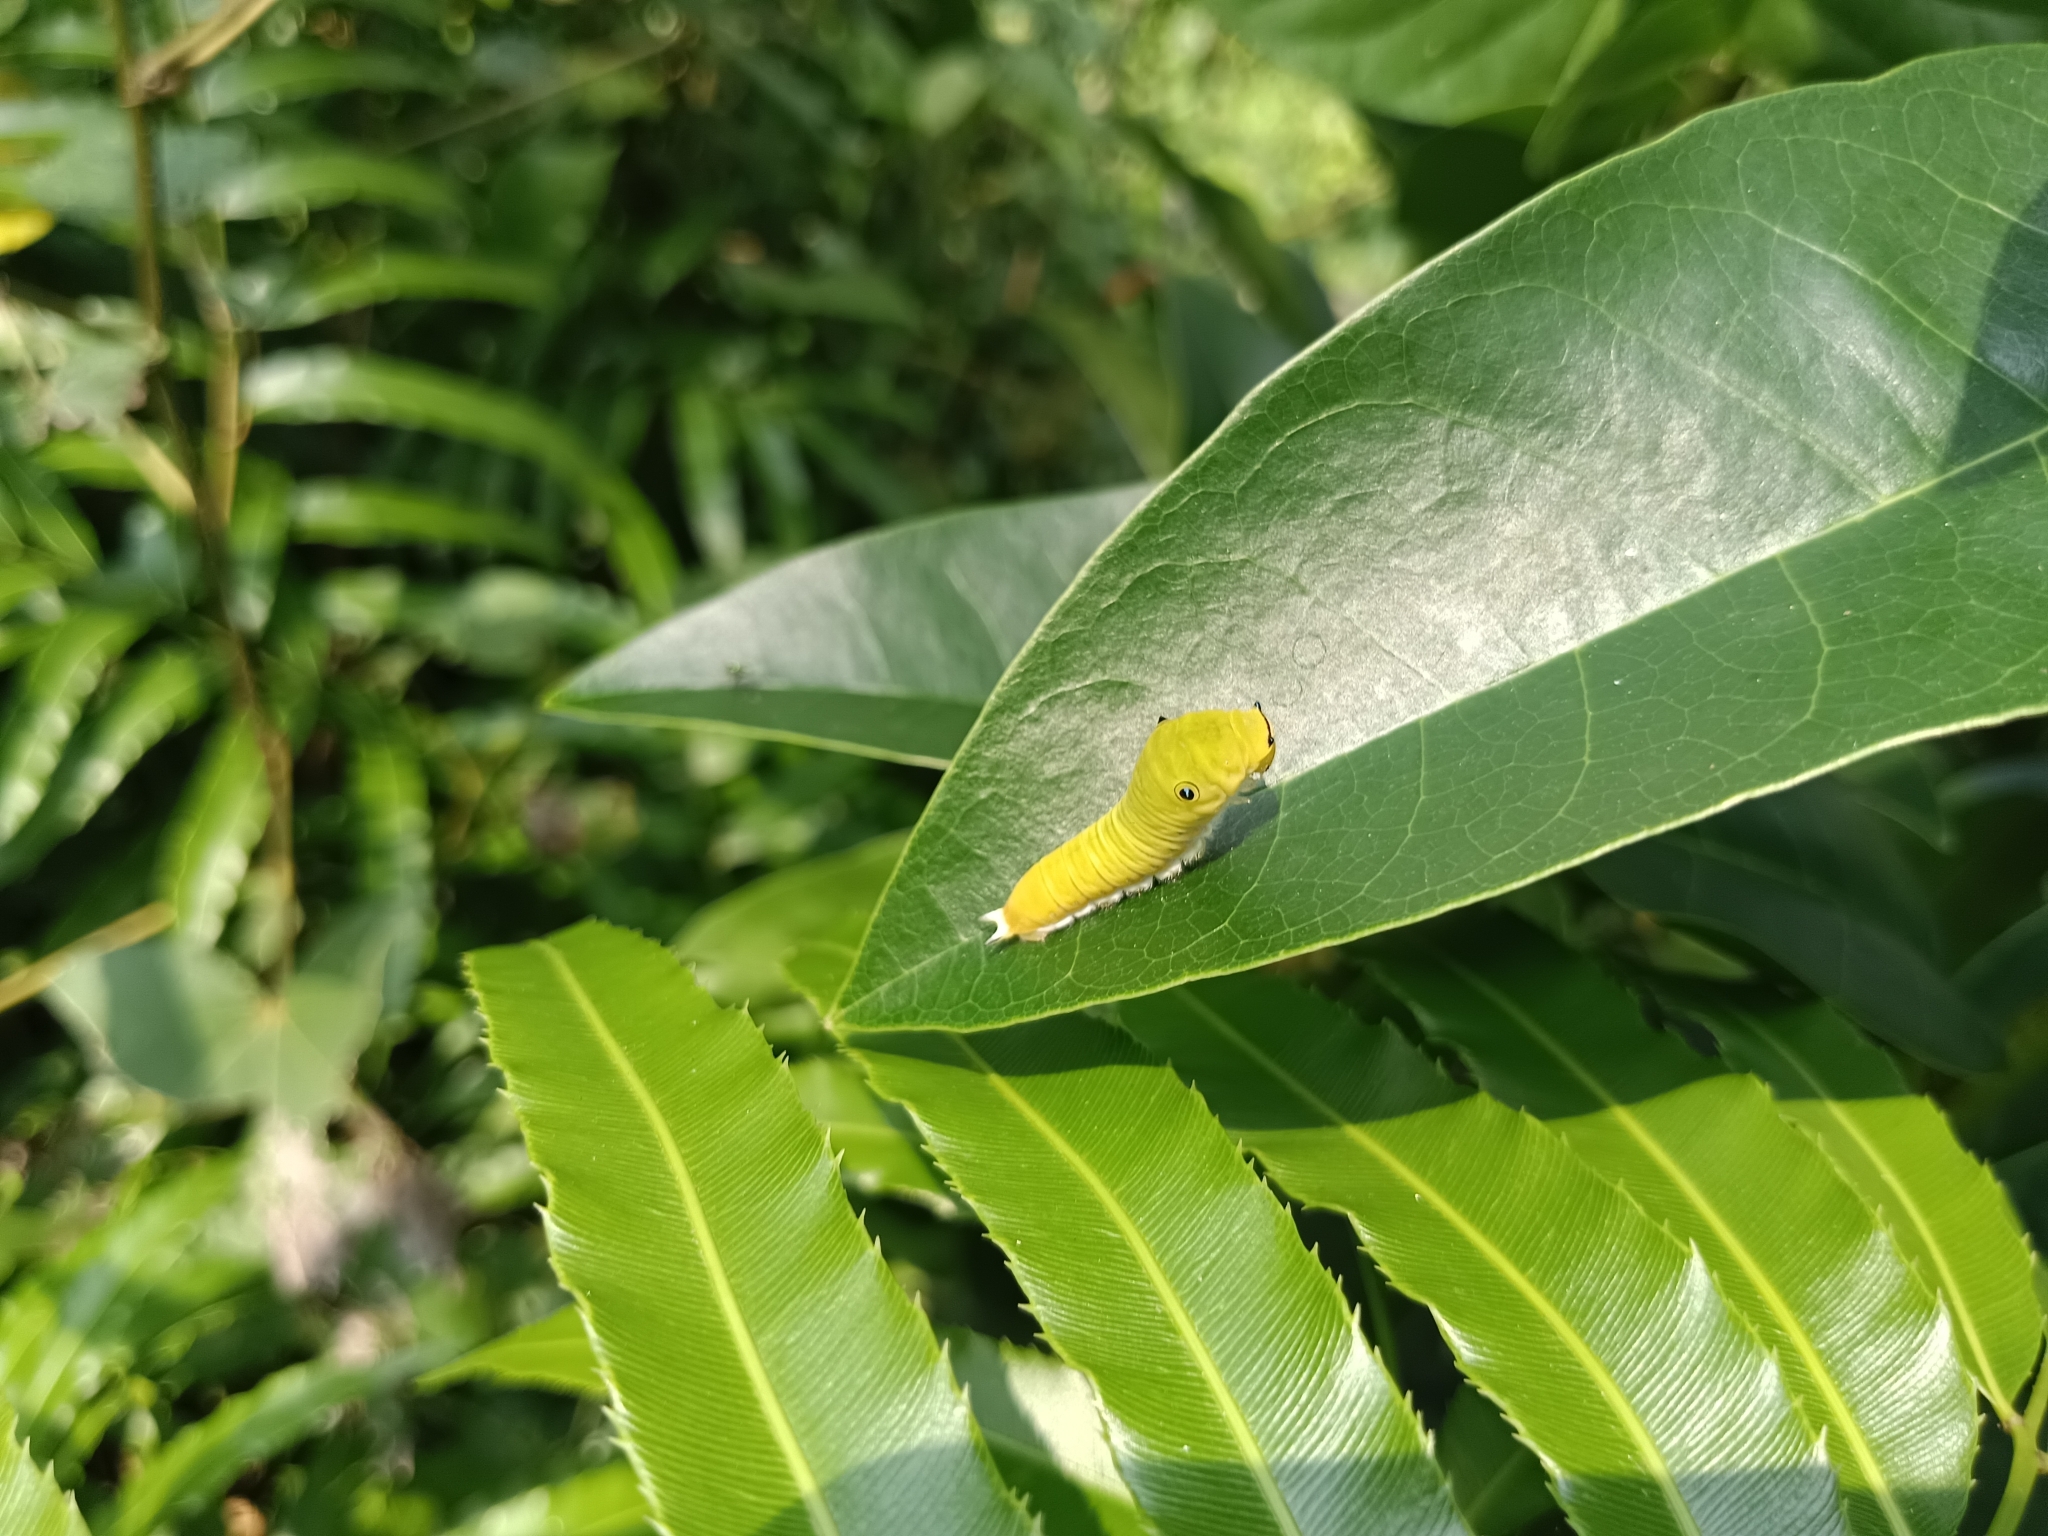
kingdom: Animalia
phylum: Arthropoda
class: Insecta
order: Lepidoptera
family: Papilionidae
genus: Graphium
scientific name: Graphium doson
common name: Common jay
